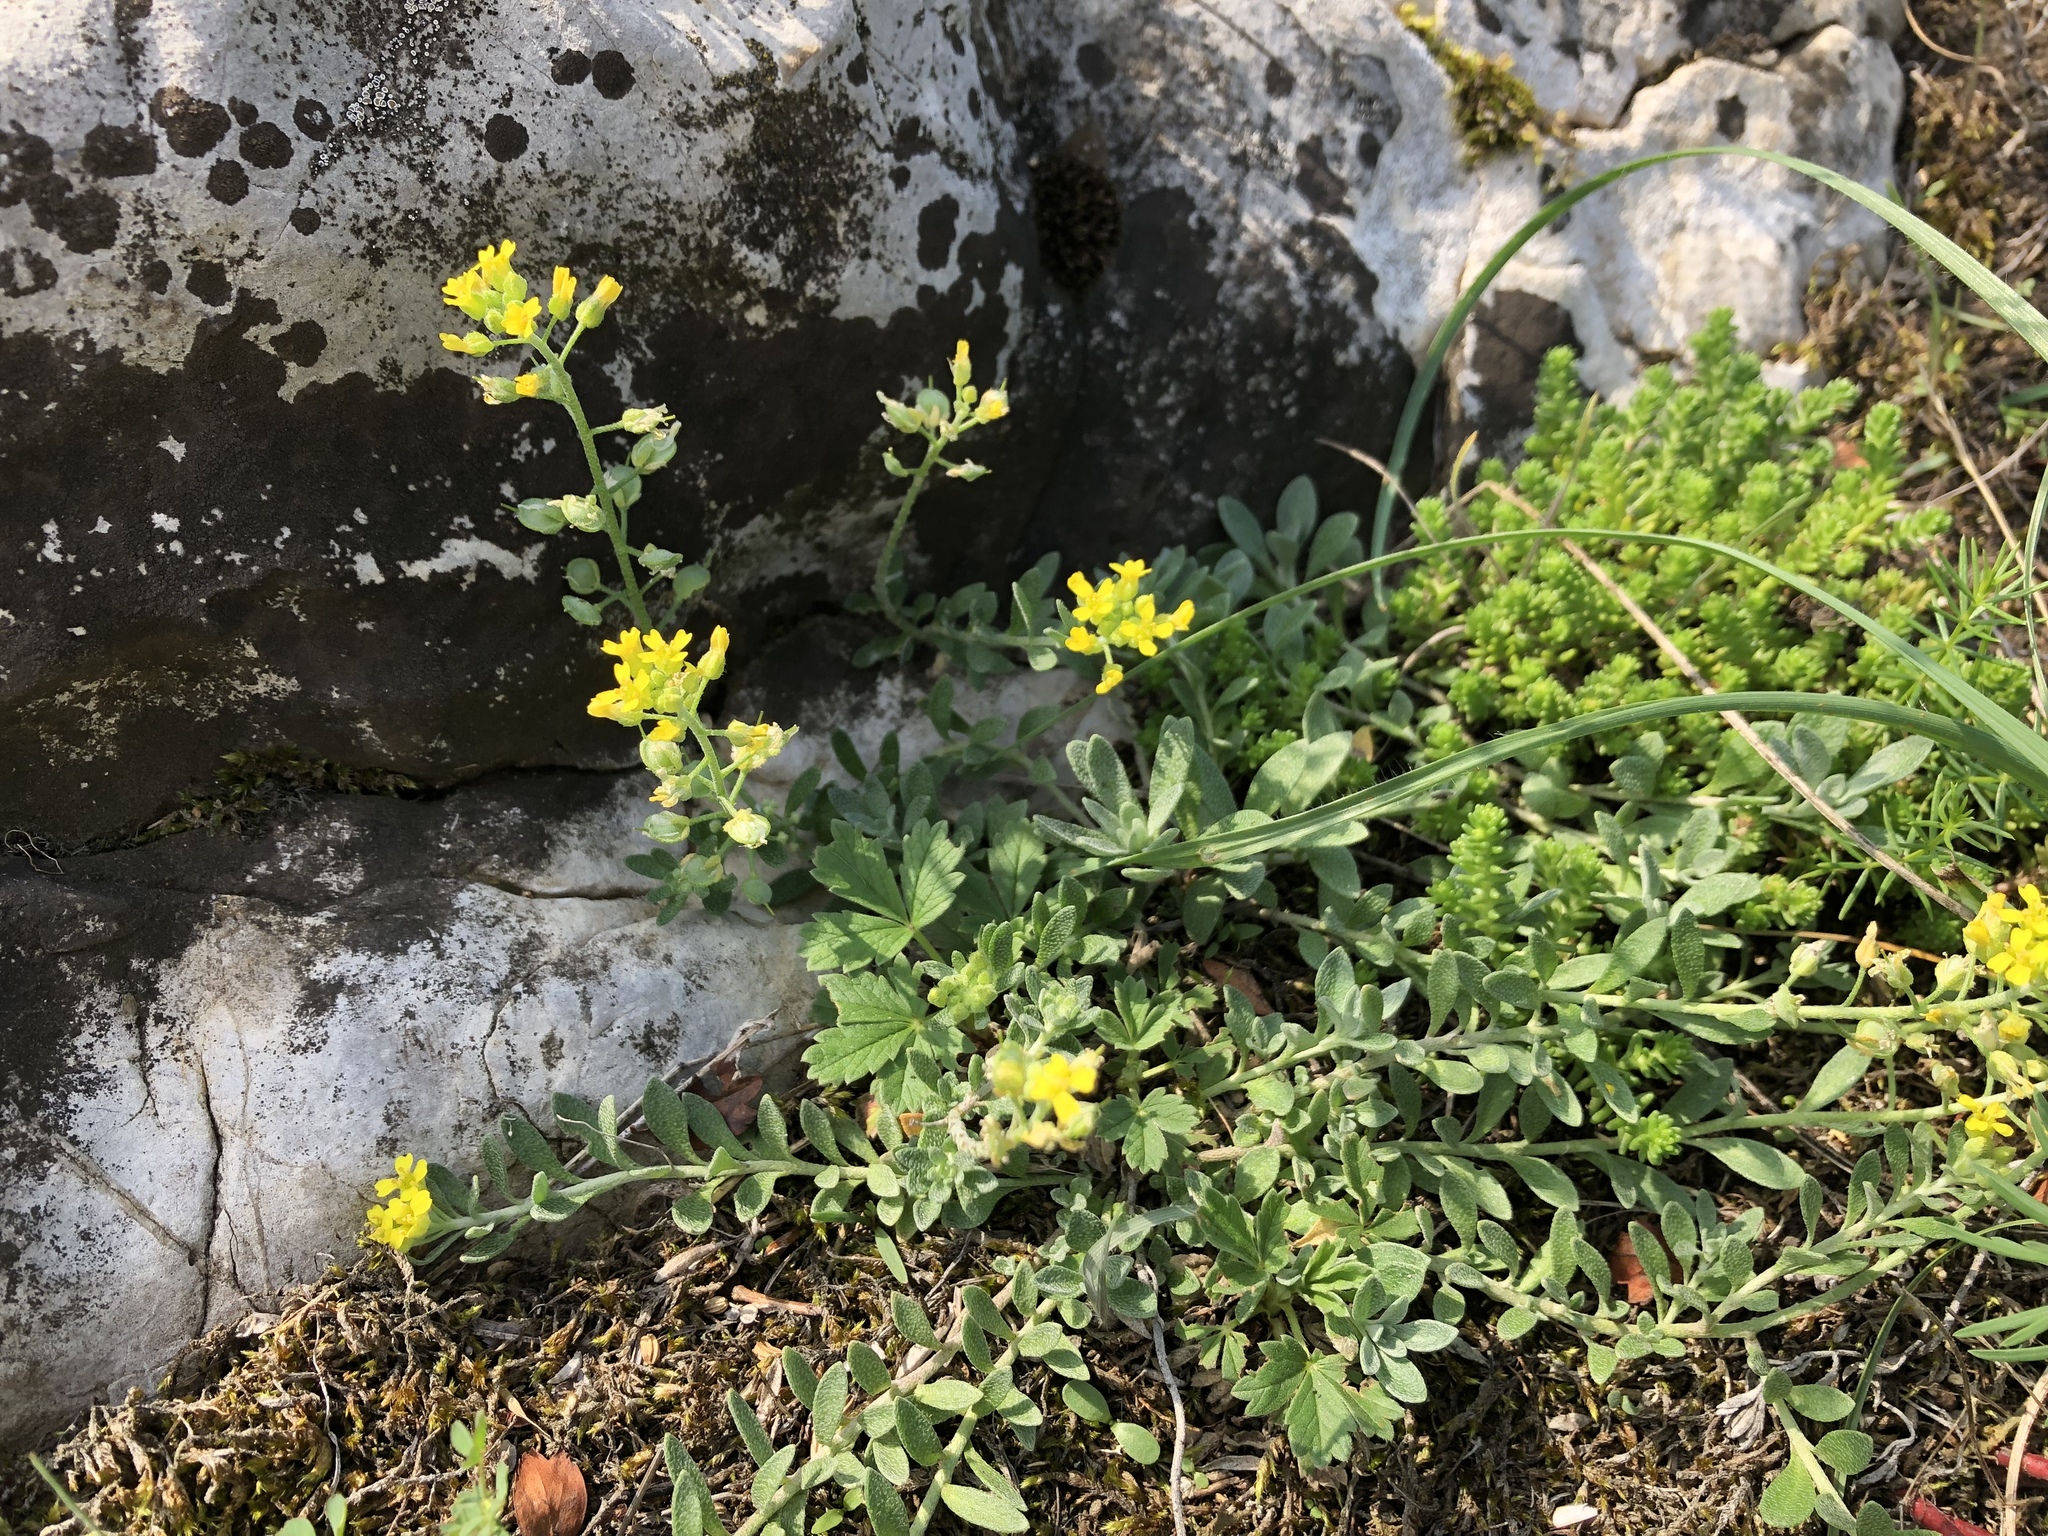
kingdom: Plantae
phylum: Tracheophyta
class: Magnoliopsida
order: Brassicales
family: Brassicaceae
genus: Alyssum
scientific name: Alyssum gmelinii
